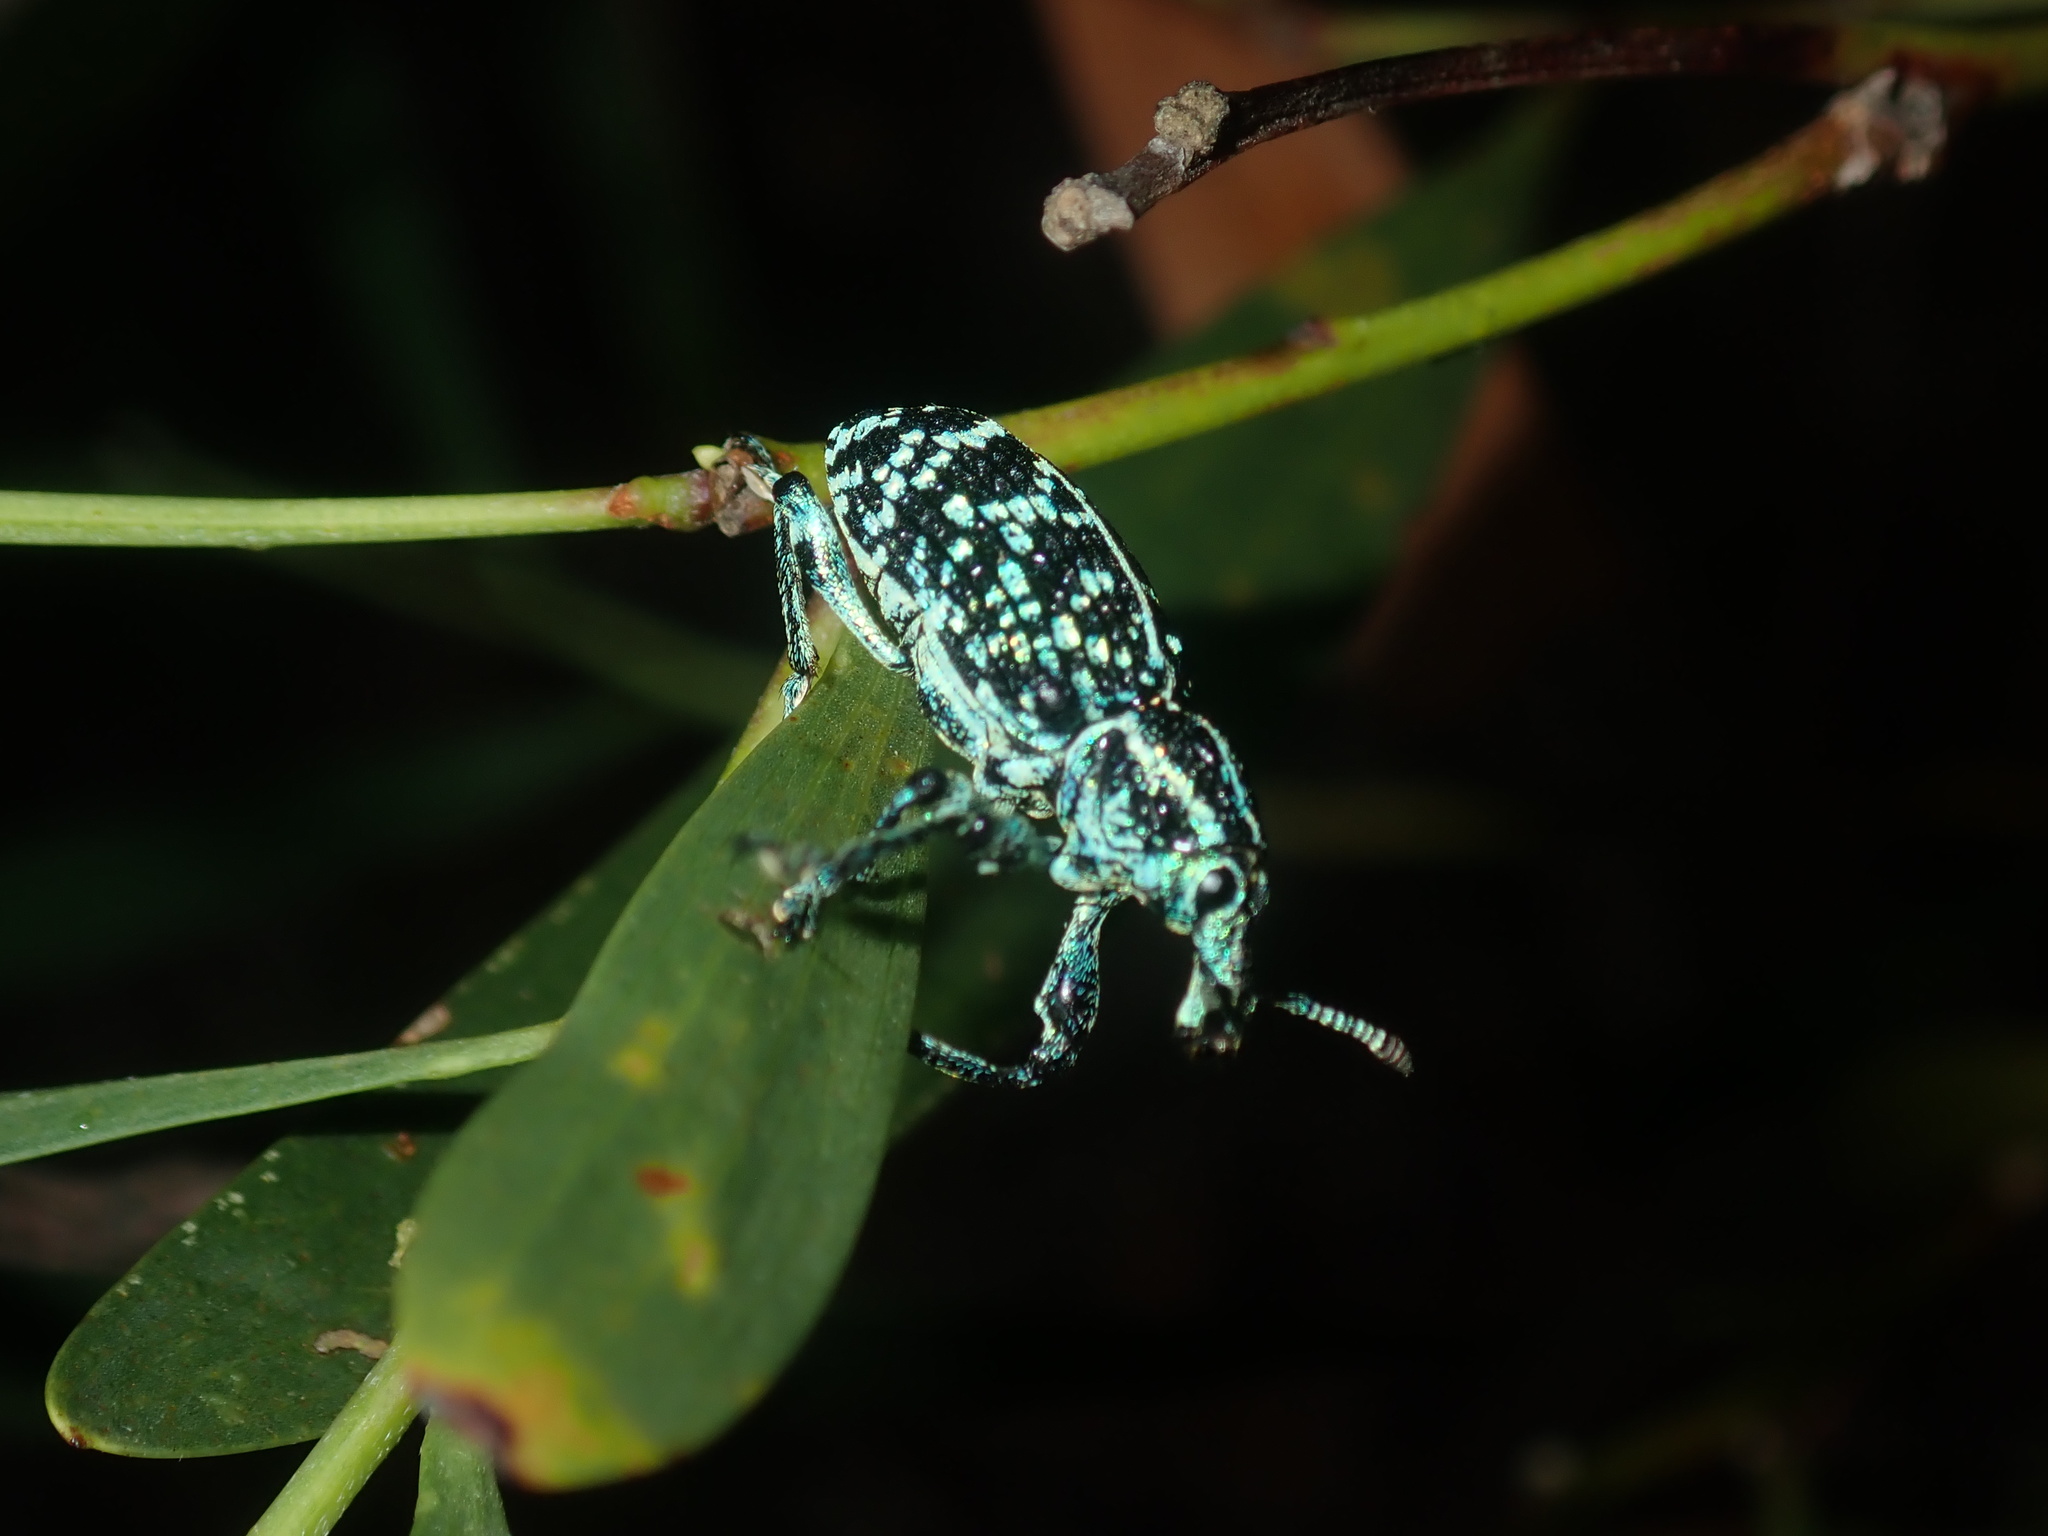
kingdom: Animalia
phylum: Arthropoda
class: Insecta
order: Coleoptera
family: Curculionidae
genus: Chrysolopus
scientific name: Chrysolopus spectabilis
